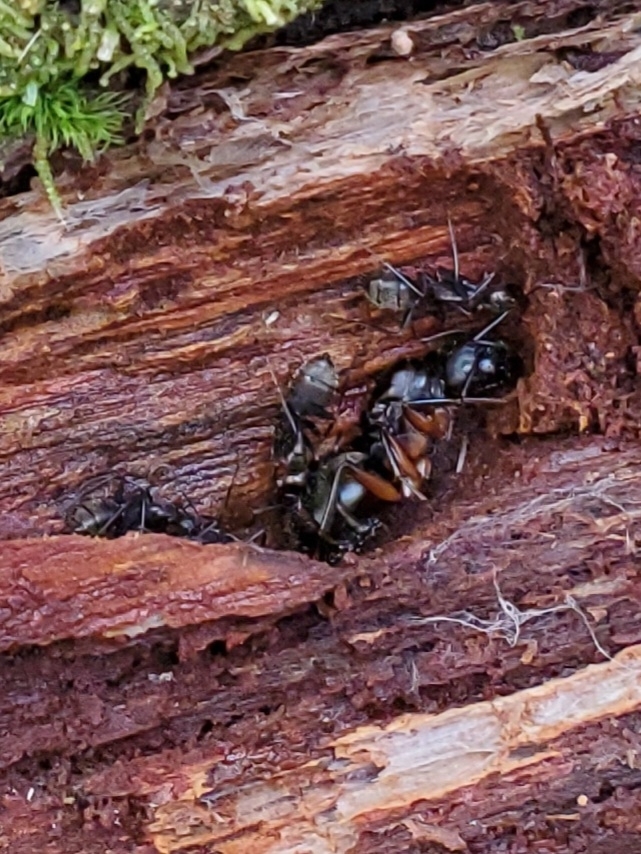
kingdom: Animalia
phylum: Arthropoda
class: Insecta
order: Hymenoptera
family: Formicidae
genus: Camponotus
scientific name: Camponotus chromaiodes
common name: Red carpenter ant
